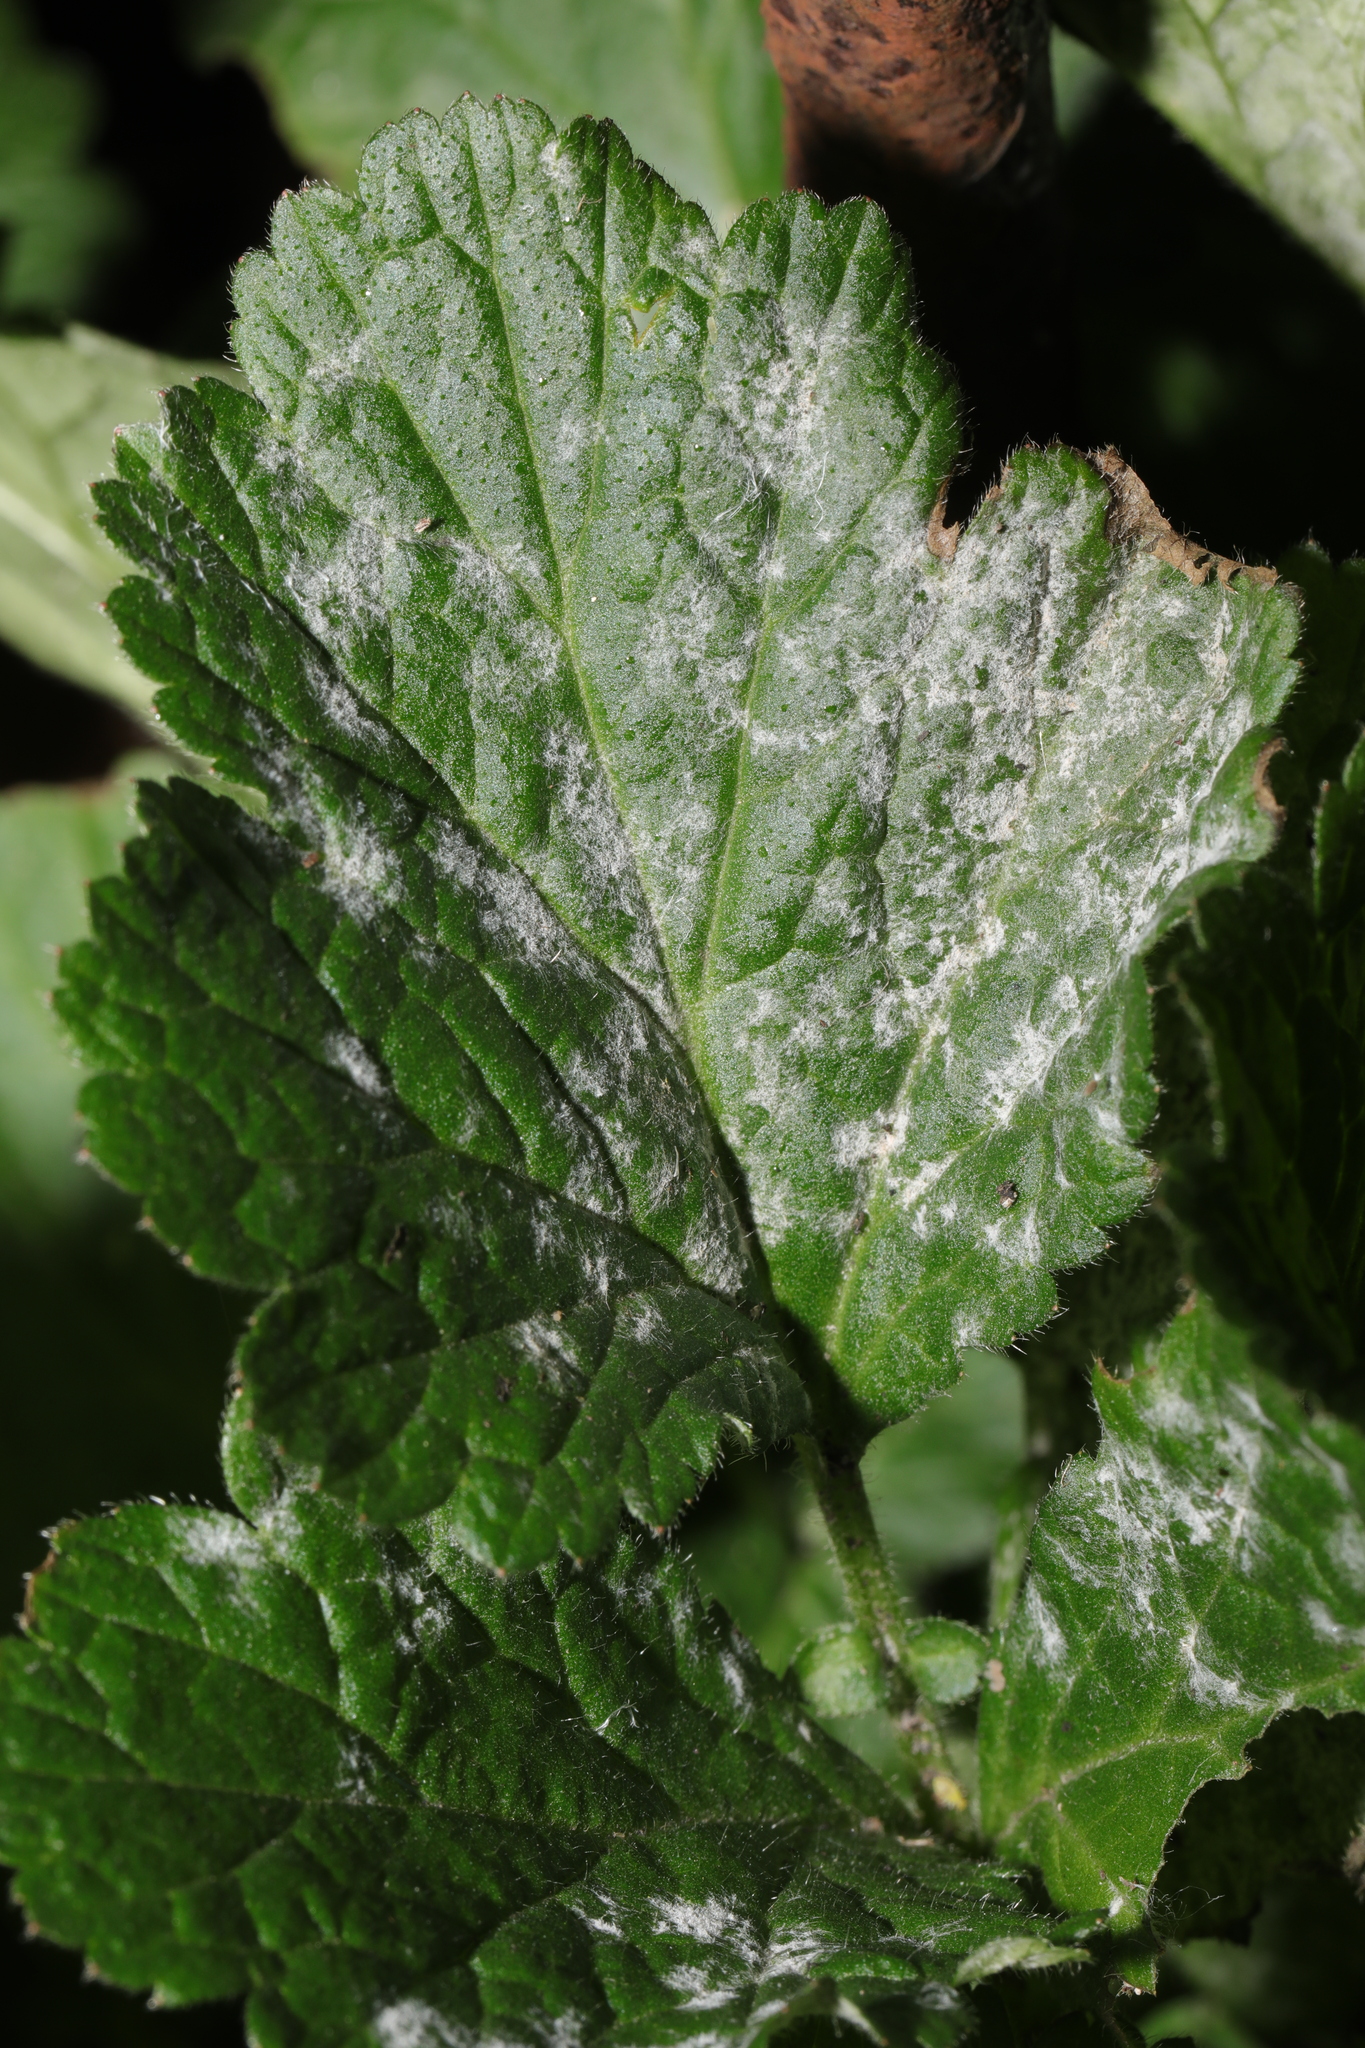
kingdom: Fungi
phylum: Ascomycota
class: Leotiomycetes
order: Helotiales
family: Erysiphaceae
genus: Podosphaera
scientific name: Podosphaera aphanis
